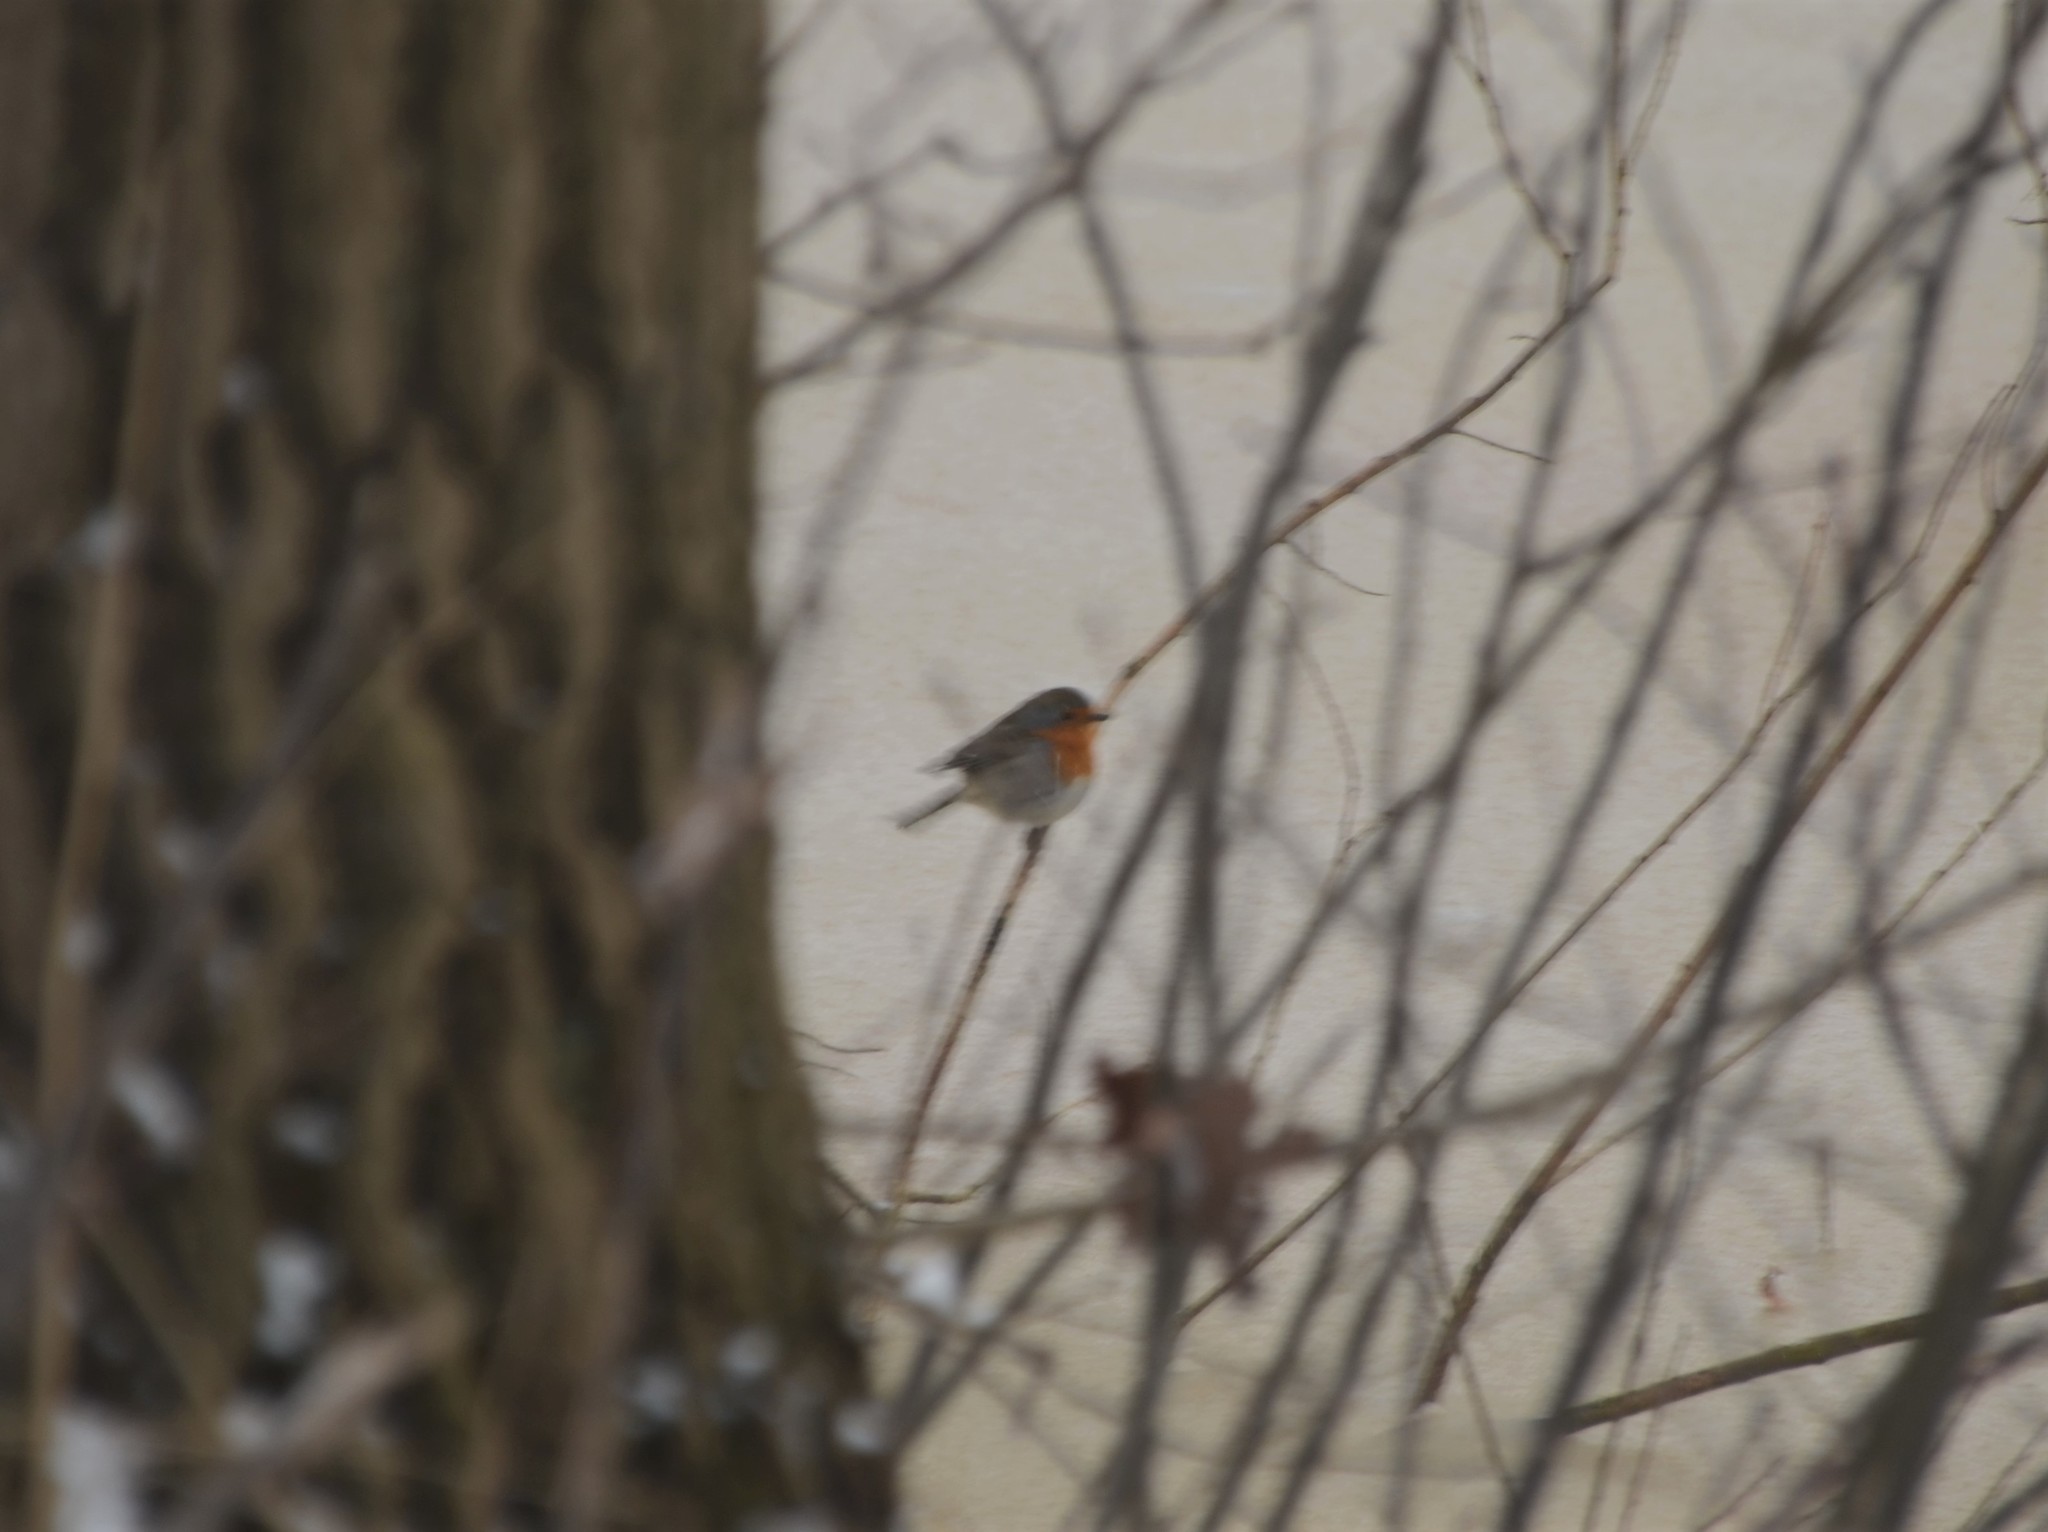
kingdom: Animalia
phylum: Chordata
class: Aves
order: Passeriformes
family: Muscicapidae
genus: Erithacus
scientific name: Erithacus rubecula
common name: European robin
